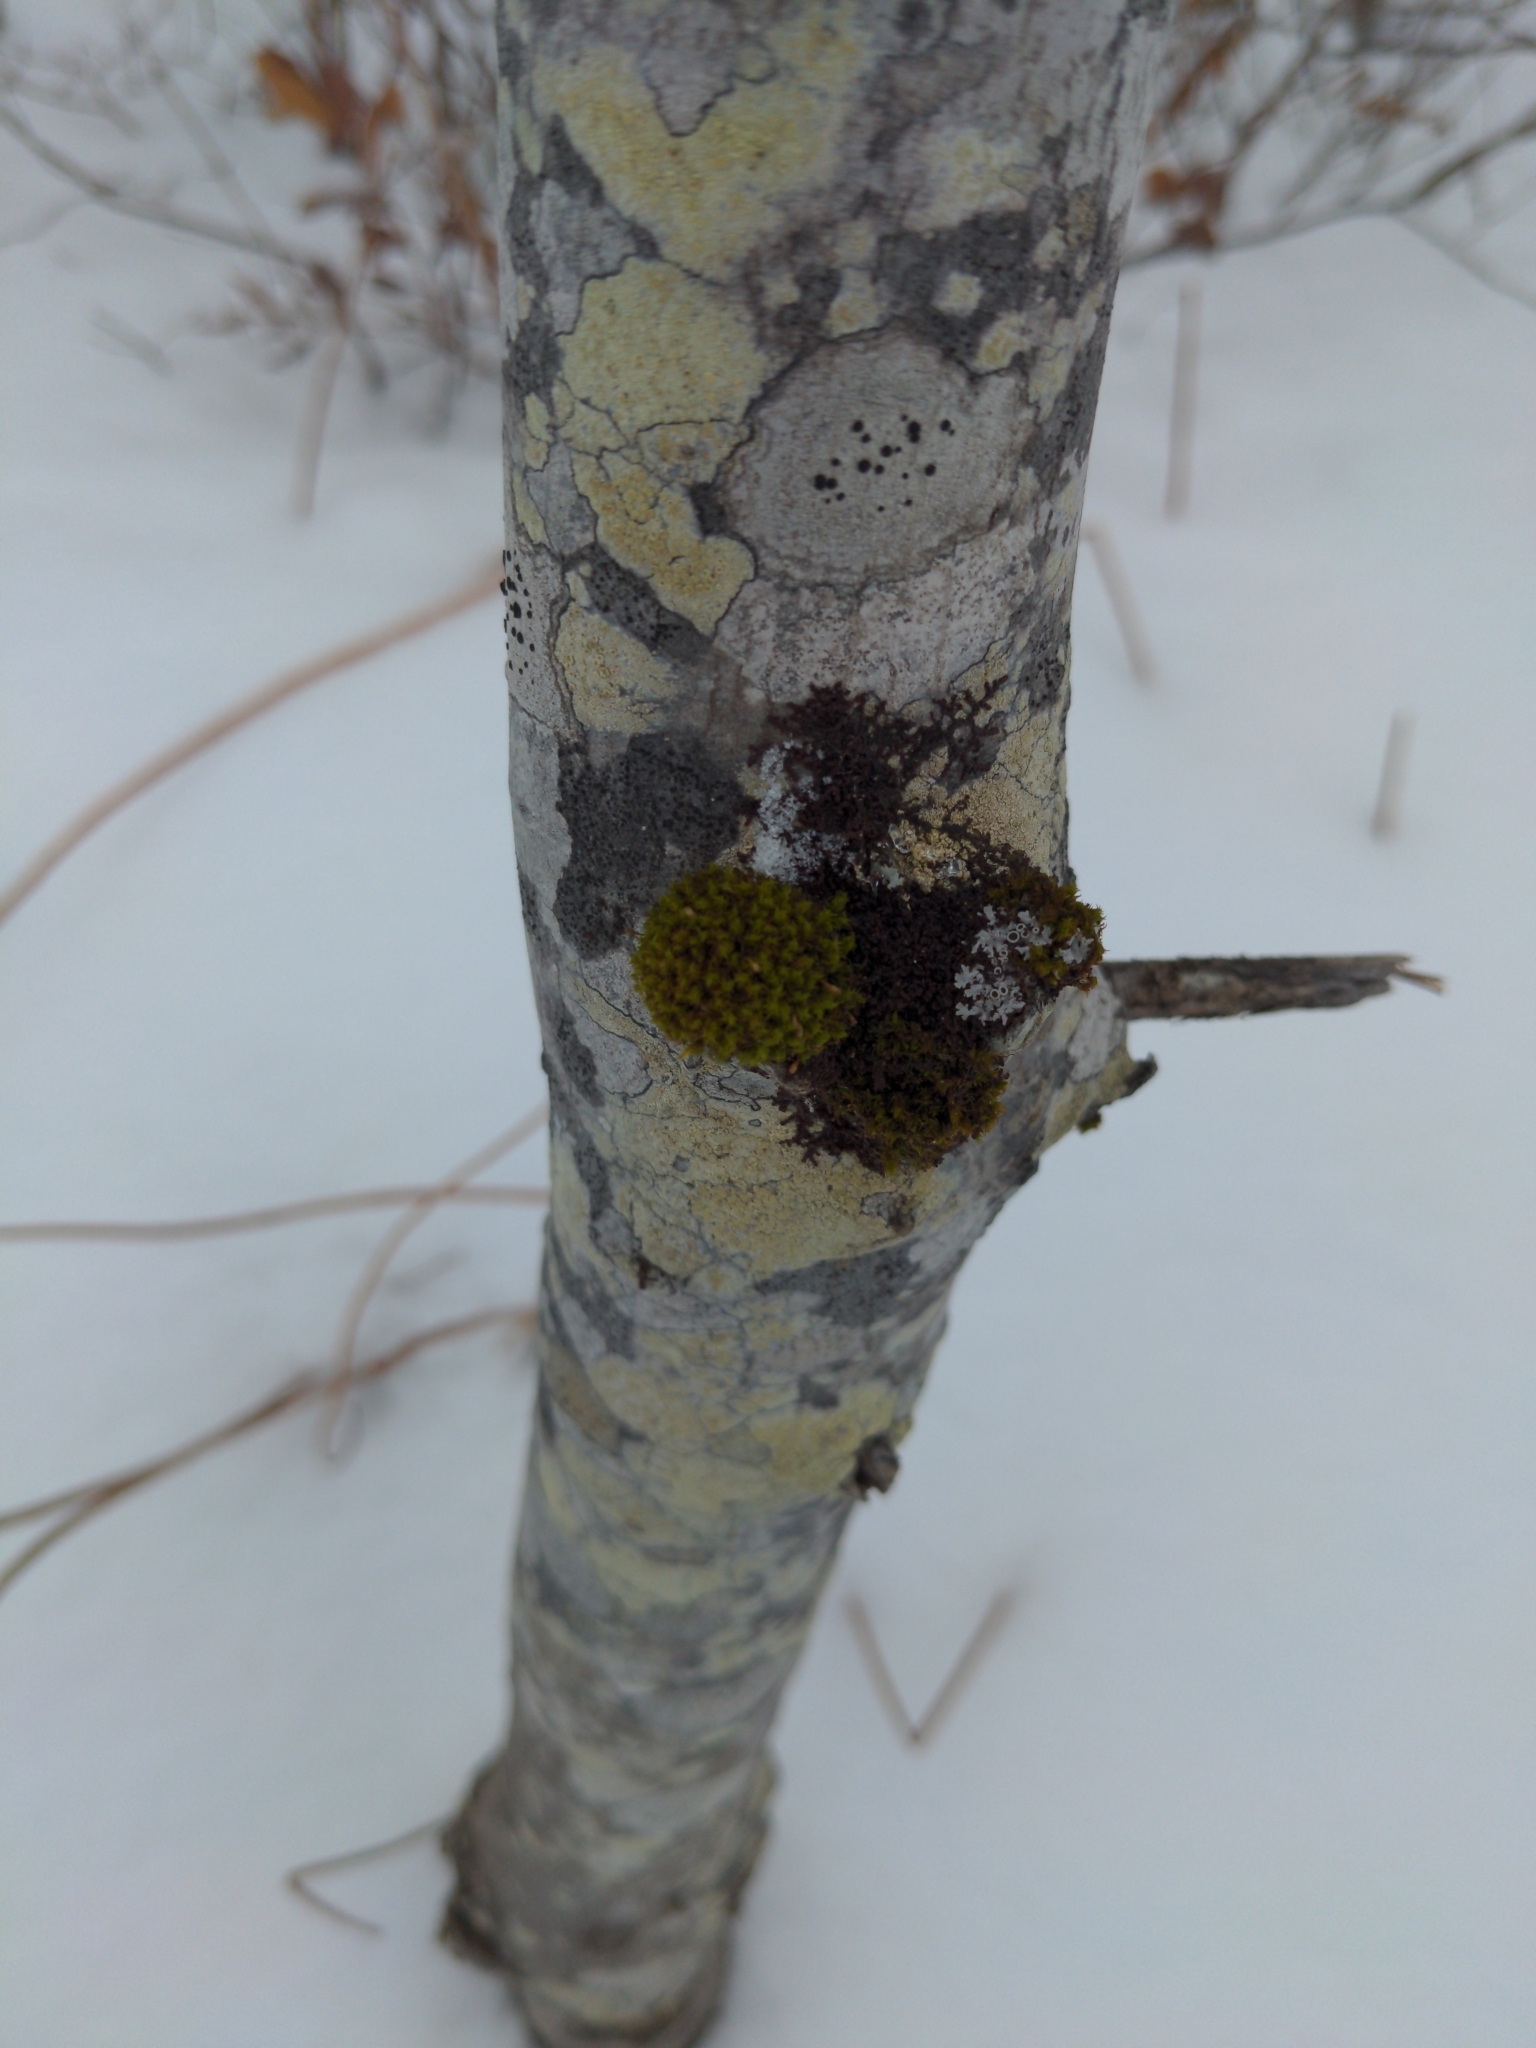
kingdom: Plantae
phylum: Bryophyta
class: Bryopsida
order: Orthotrichales
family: Orthotrichaceae
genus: Ulota
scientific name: Ulota crispa
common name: Crisped pincushion moss
